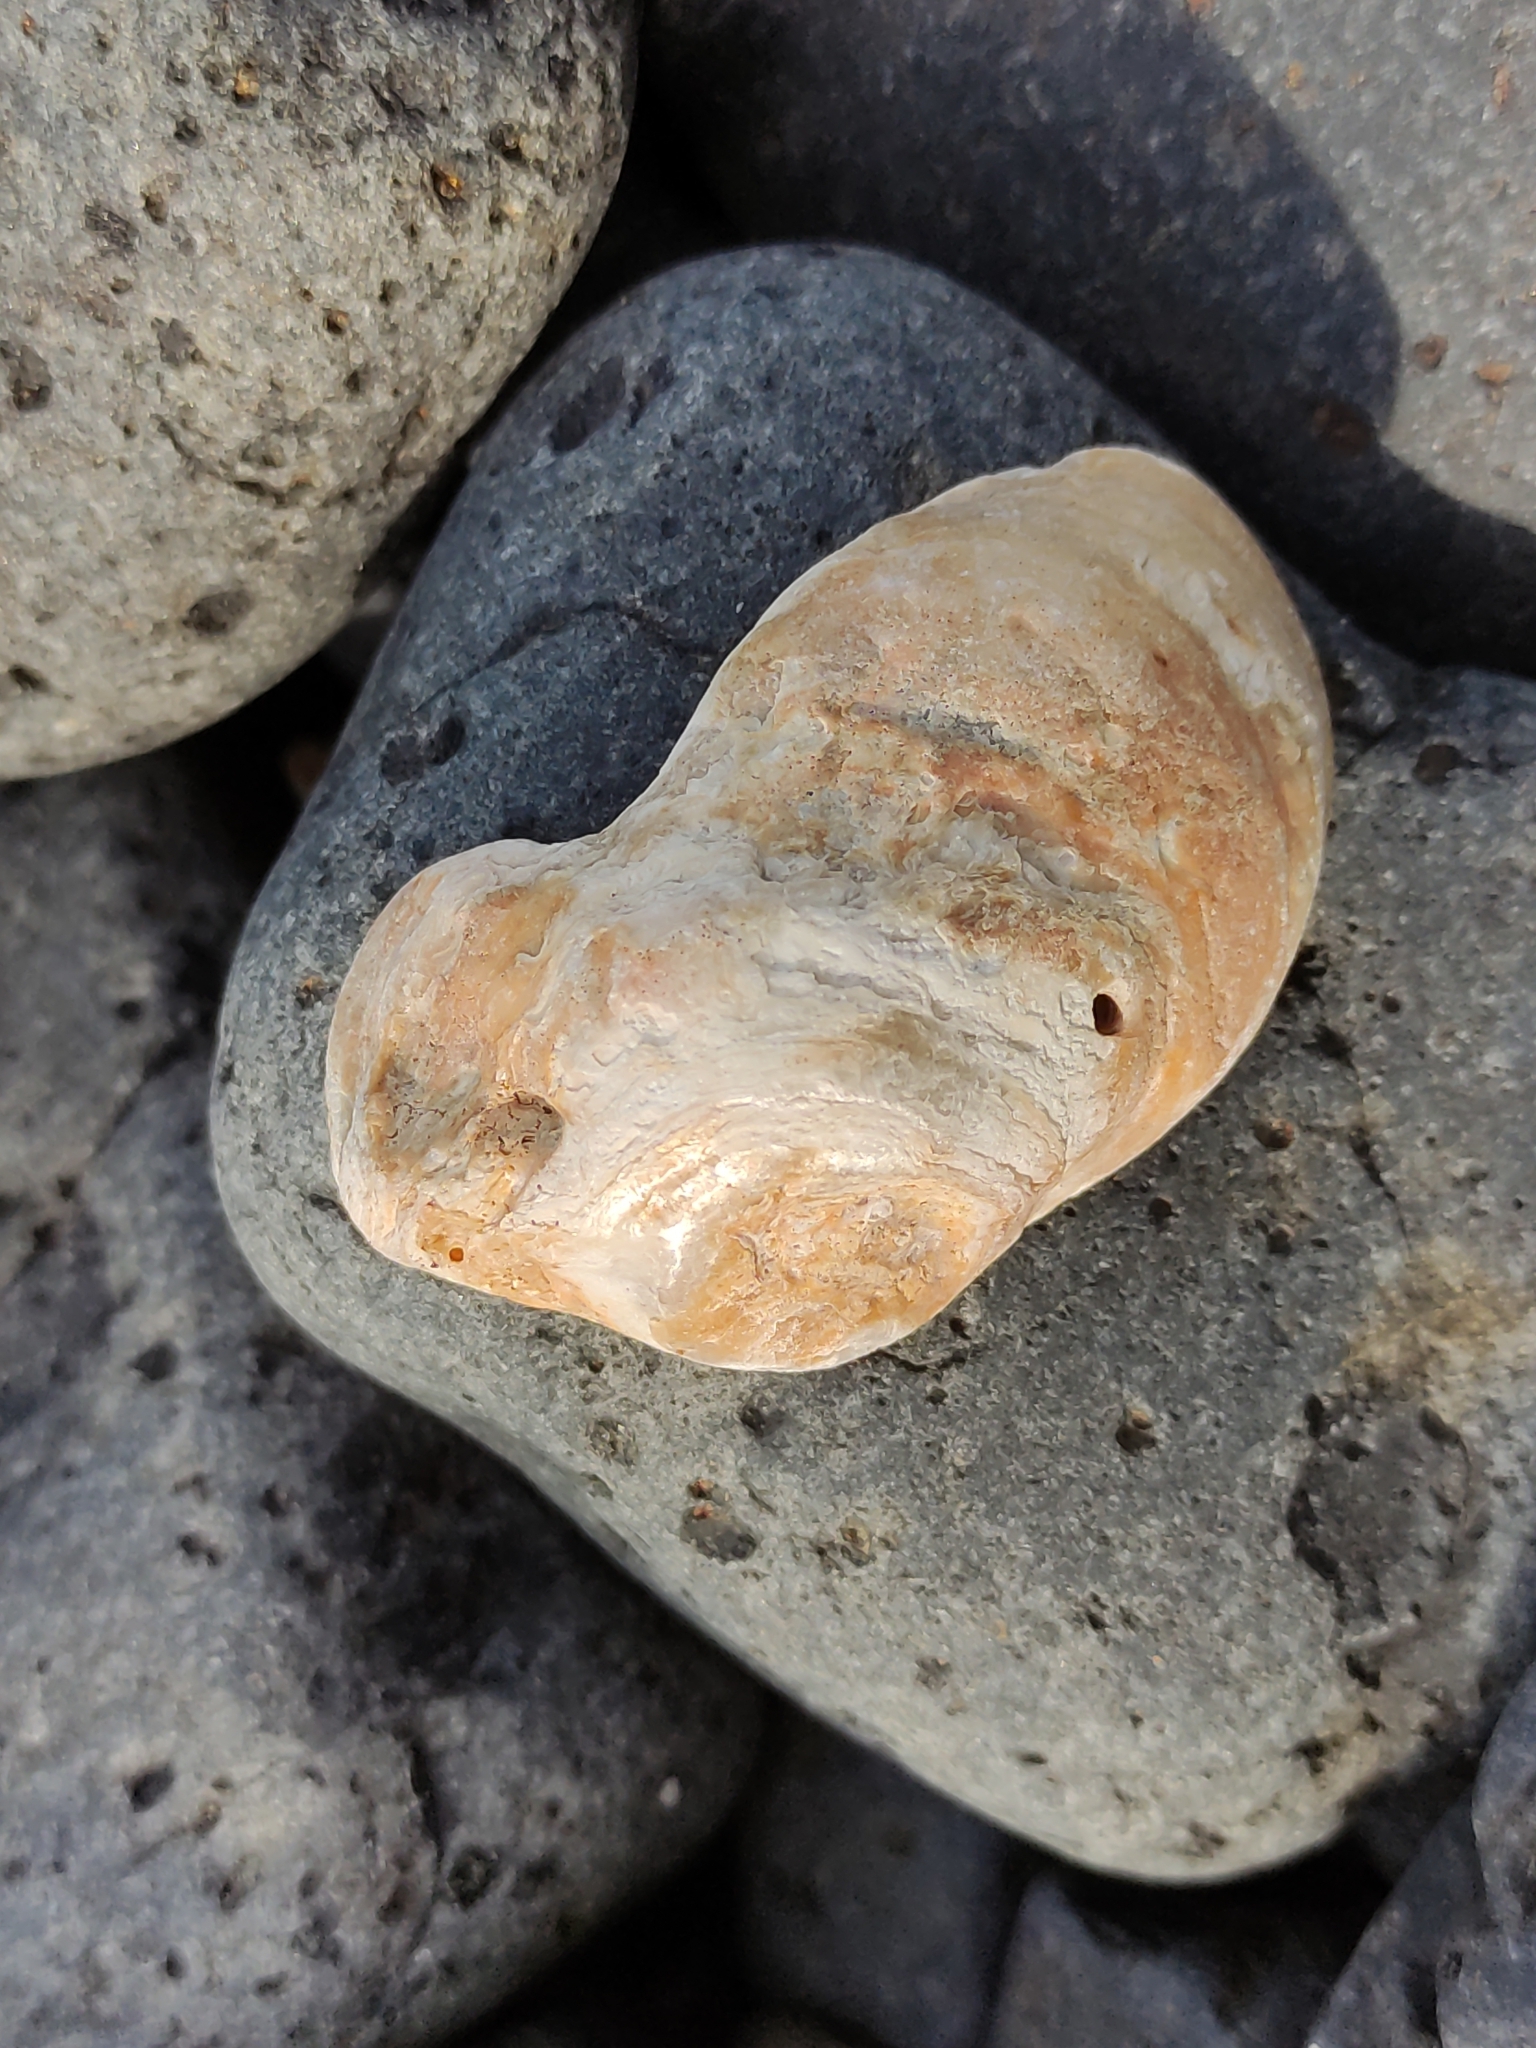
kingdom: Animalia
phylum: Mollusca
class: Bivalvia
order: Ostreida
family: Ostreidae
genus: Ostrea
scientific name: Ostrea chilensis
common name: Chilean oyster
